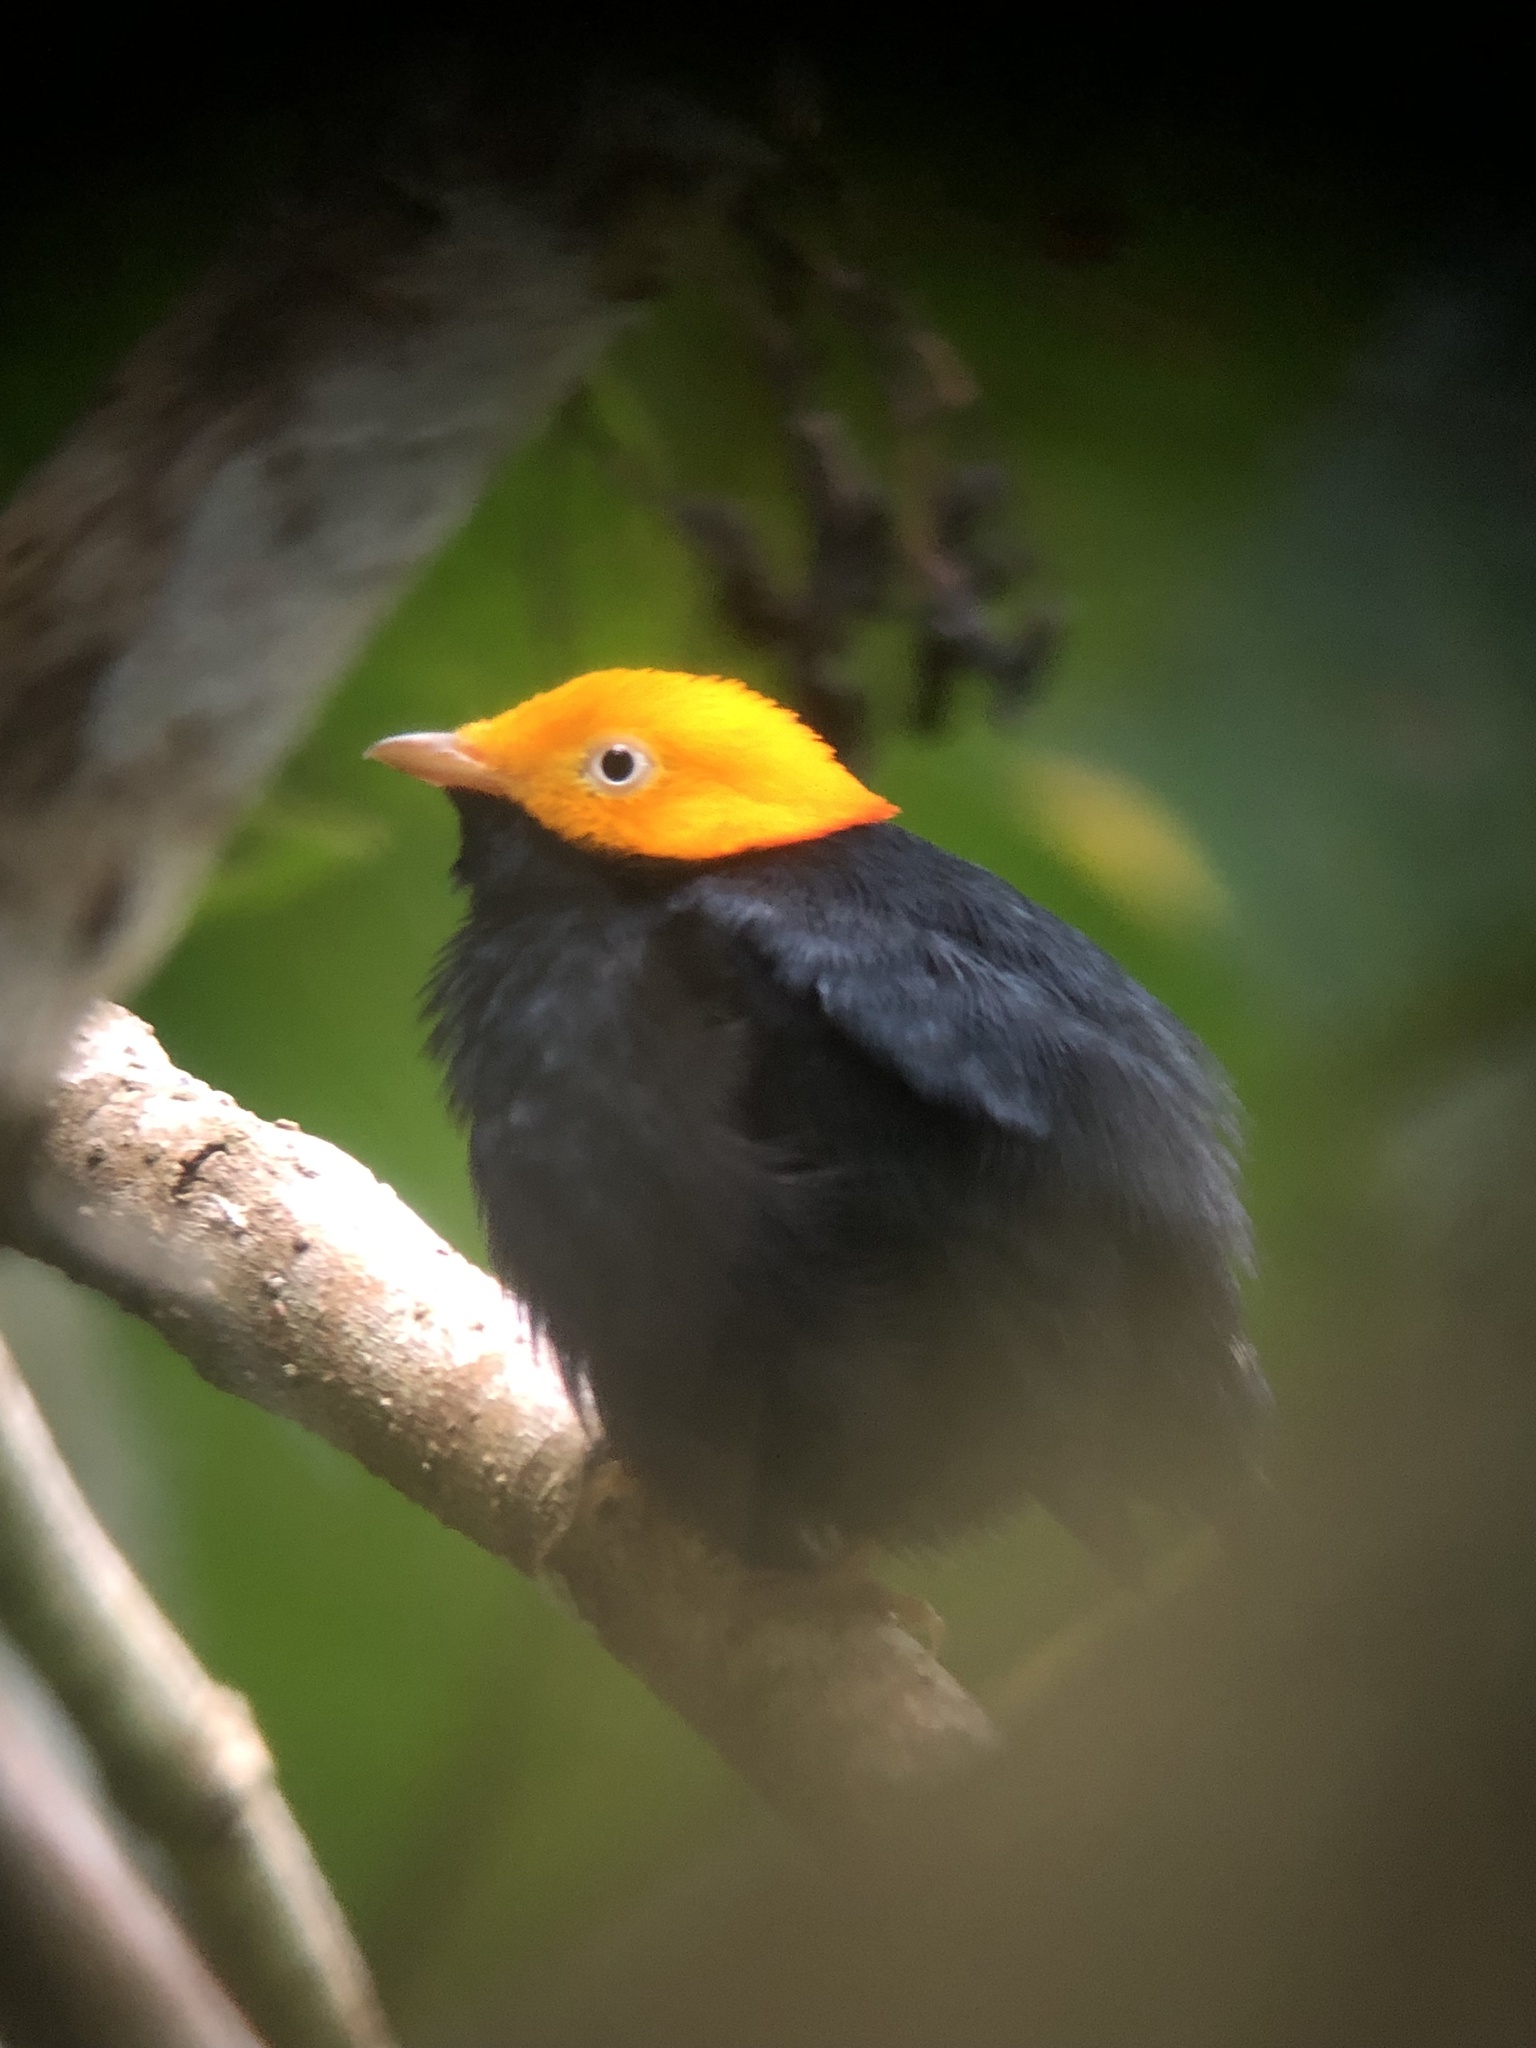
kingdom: Animalia
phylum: Chordata
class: Aves
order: Passeriformes
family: Pipridae
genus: Pipra
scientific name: Pipra erythrocephala
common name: Golden-headed manakin
